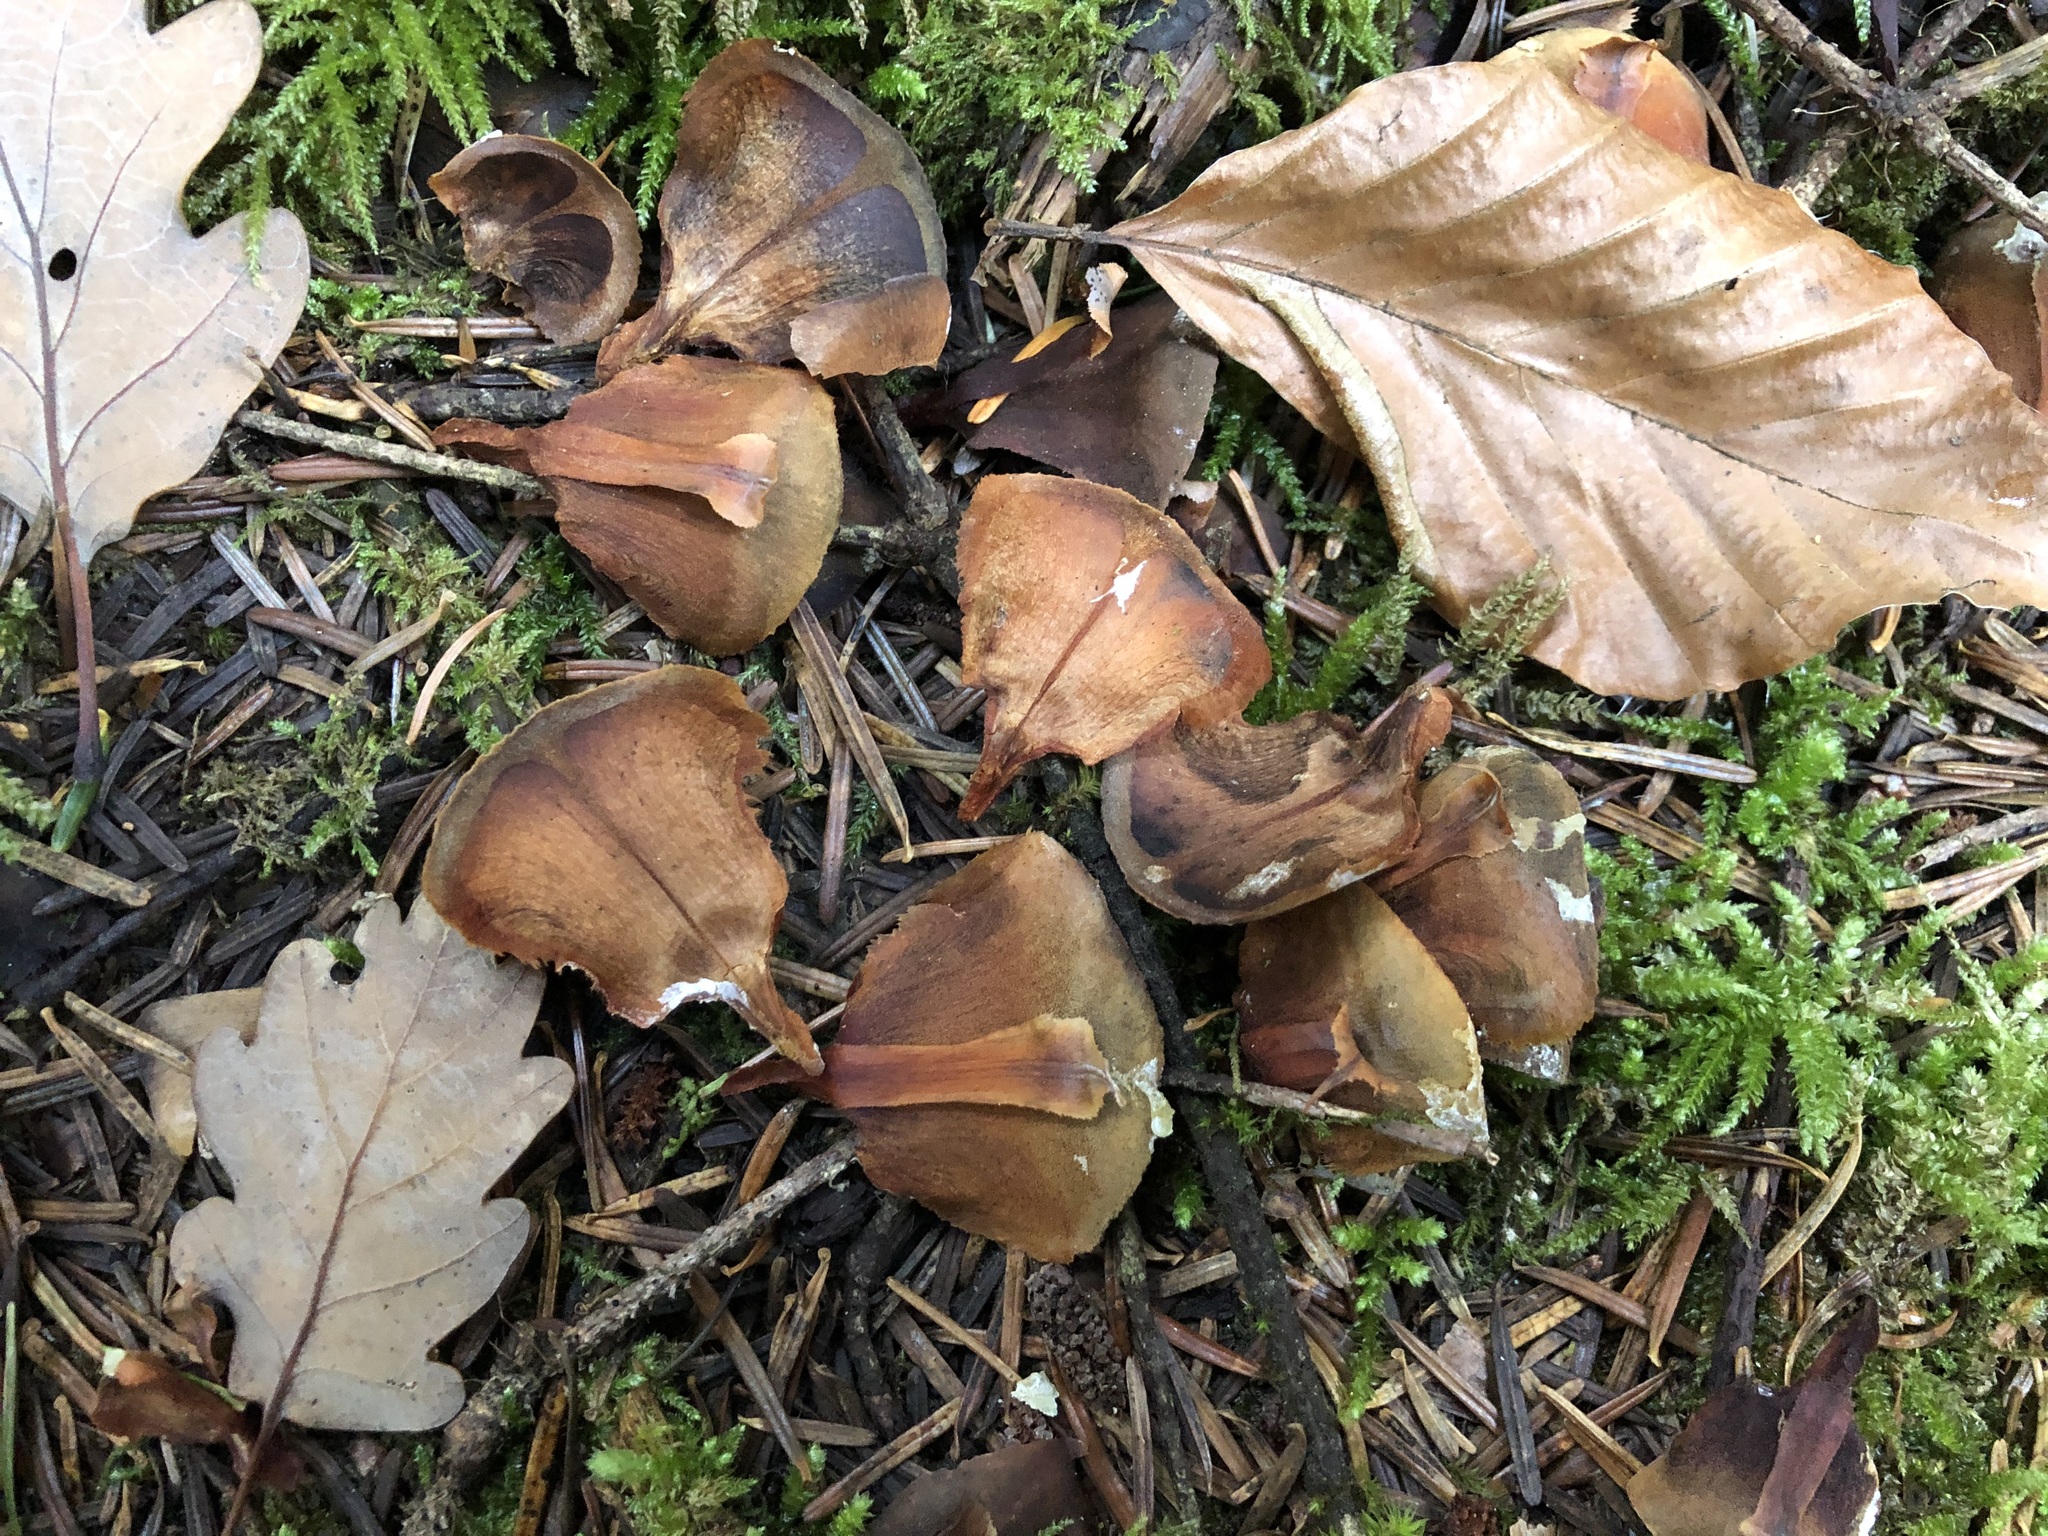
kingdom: Plantae
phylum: Tracheophyta
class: Pinopsida
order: Pinales
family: Pinaceae
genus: Abies
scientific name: Abies alba
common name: Silver fir
